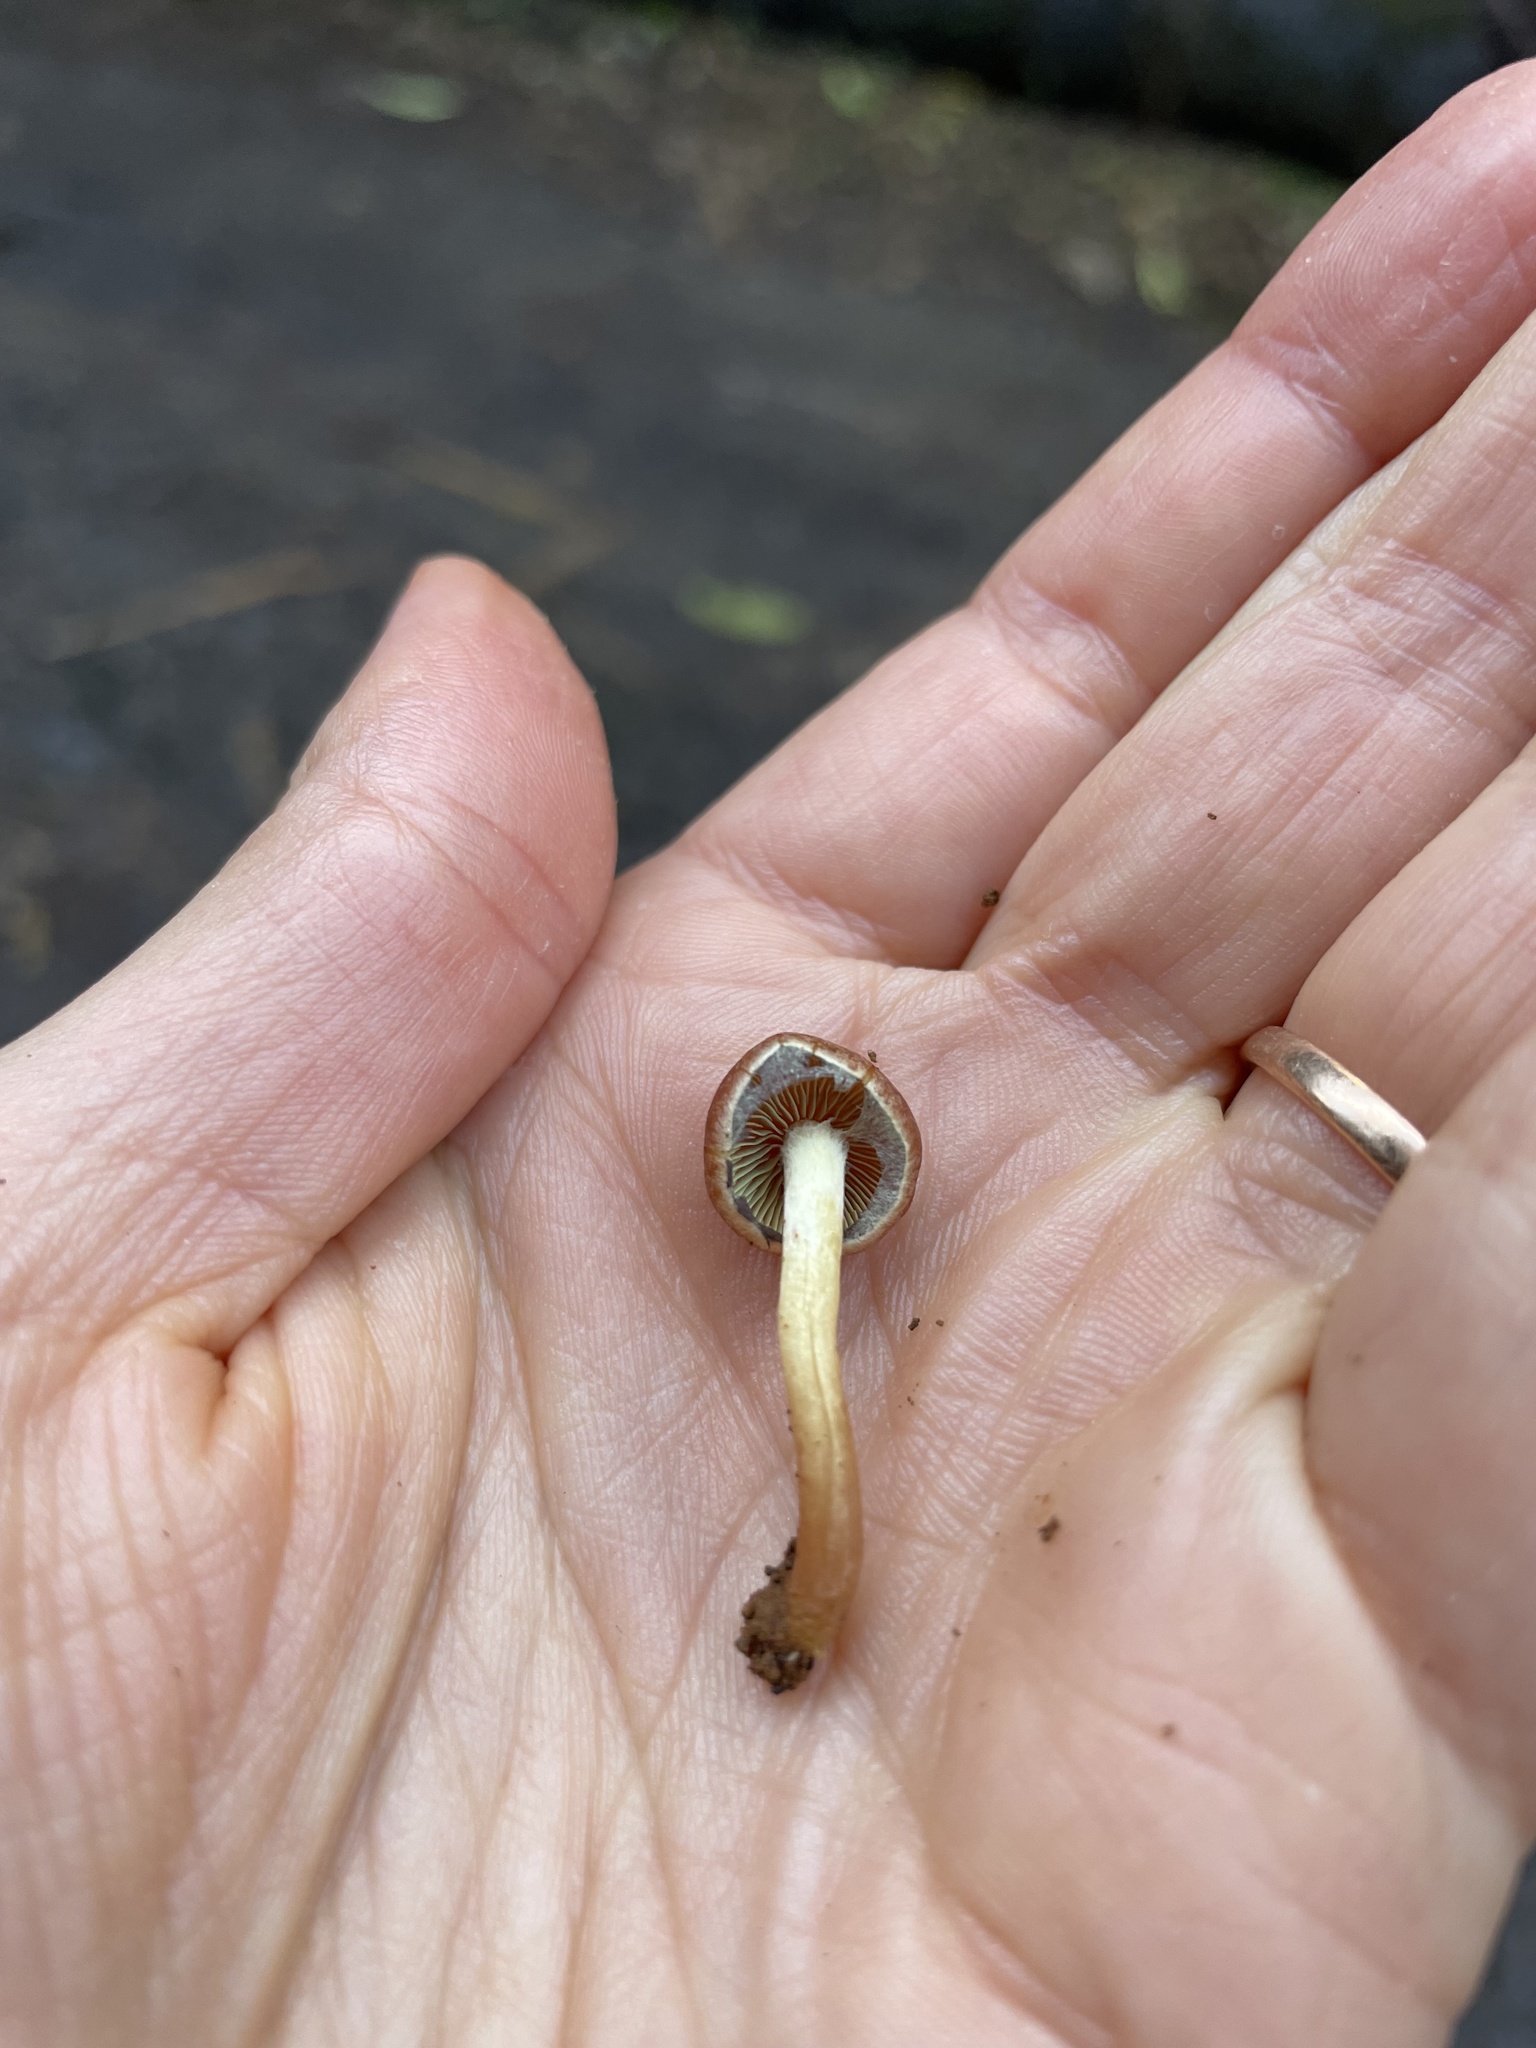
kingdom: Fungi
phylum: Basidiomycota
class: Agaricomycetes
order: Agaricales
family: Strophariaceae
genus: Leratiomyces
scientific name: Leratiomyces ceres
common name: Redlead roundhead
